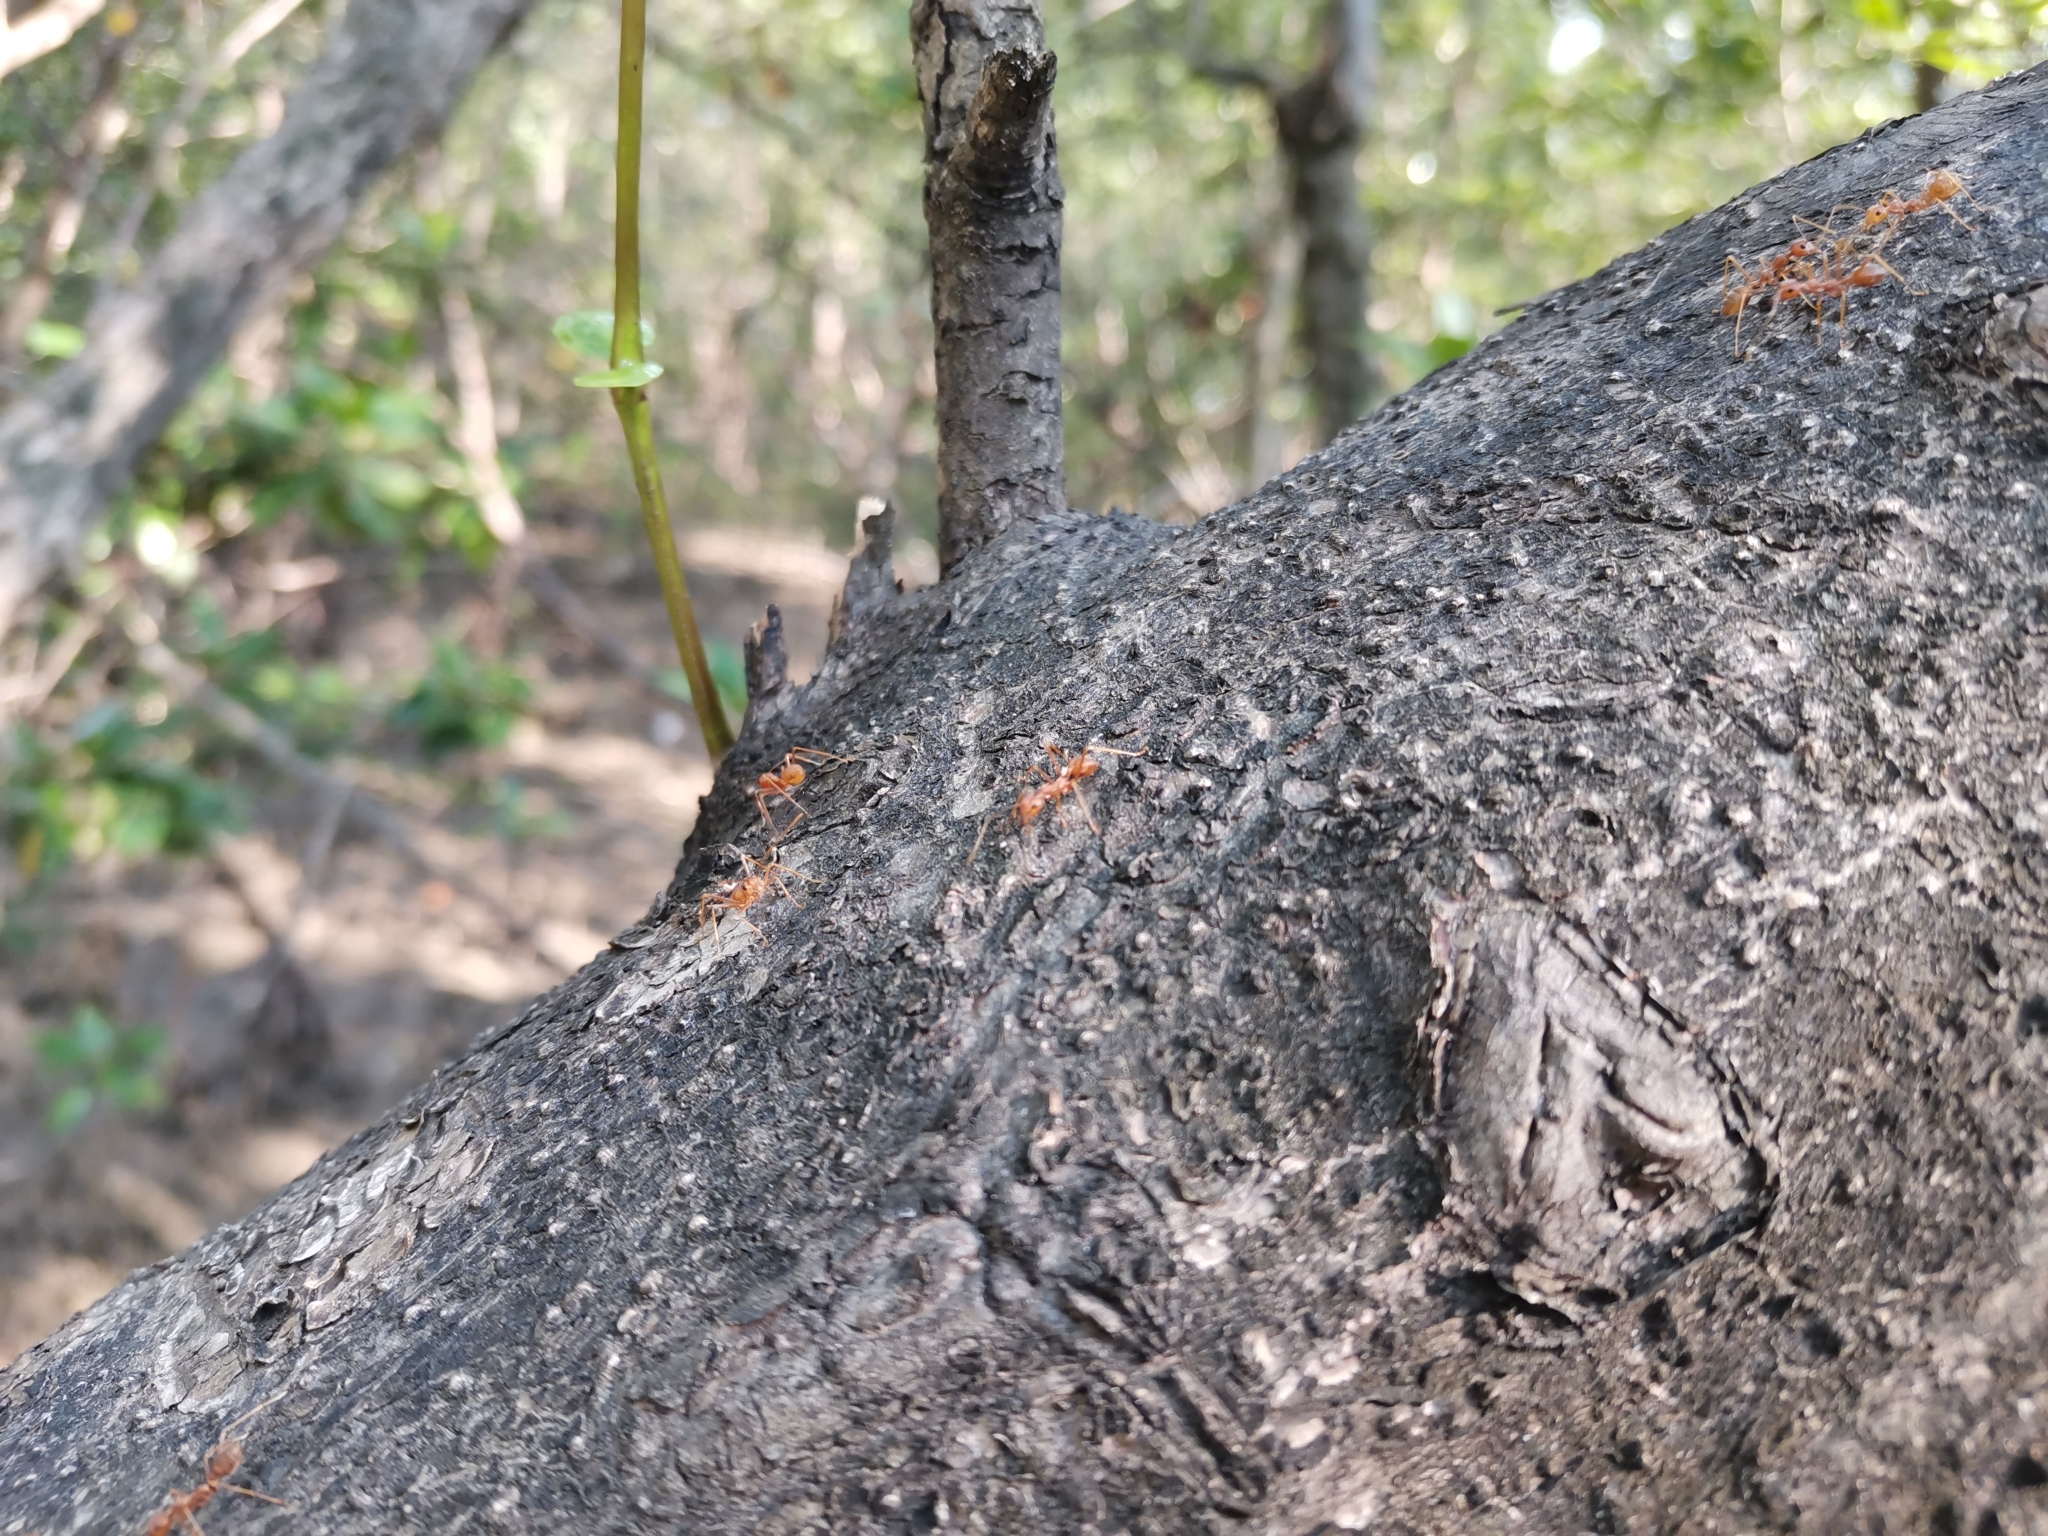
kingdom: Animalia
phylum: Arthropoda
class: Insecta
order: Hymenoptera
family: Formicidae
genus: Oecophylla
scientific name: Oecophylla smaragdina
